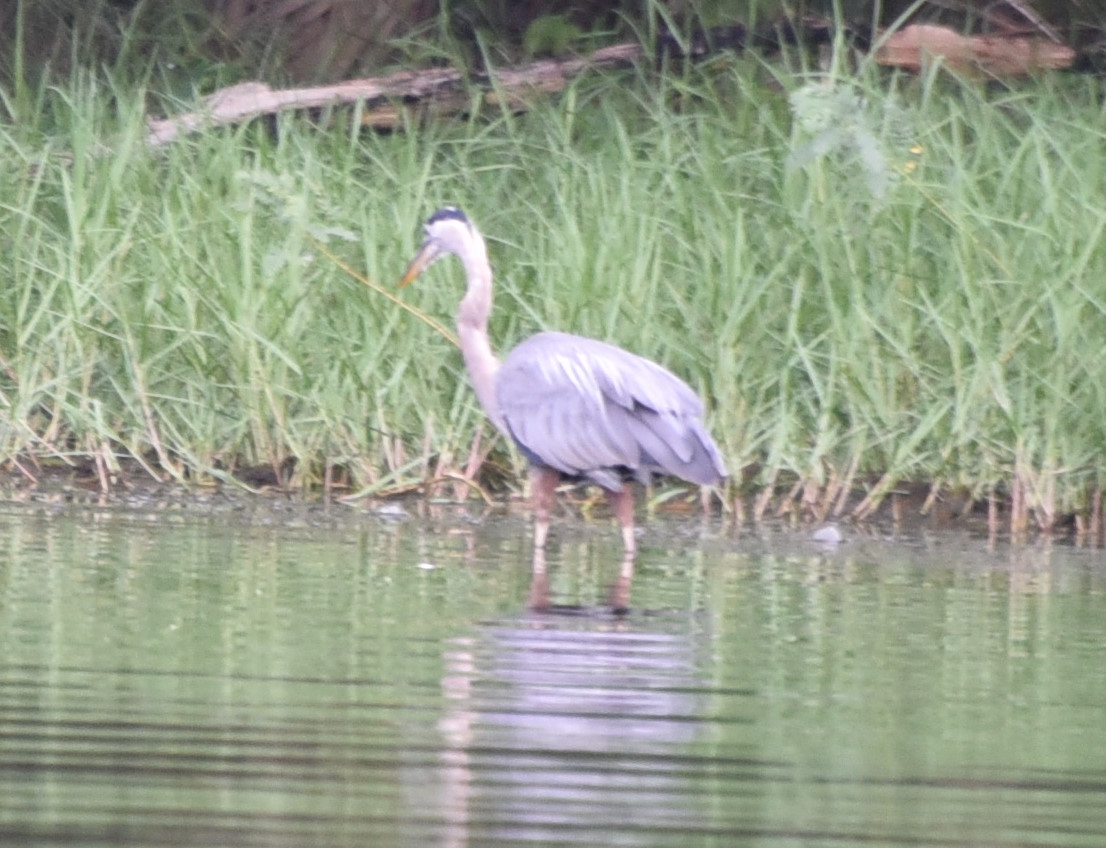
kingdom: Animalia
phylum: Chordata
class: Aves
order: Pelecaniformes
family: Ardeidae
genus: Ardea
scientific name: Ardea herodias
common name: Great blue heron
